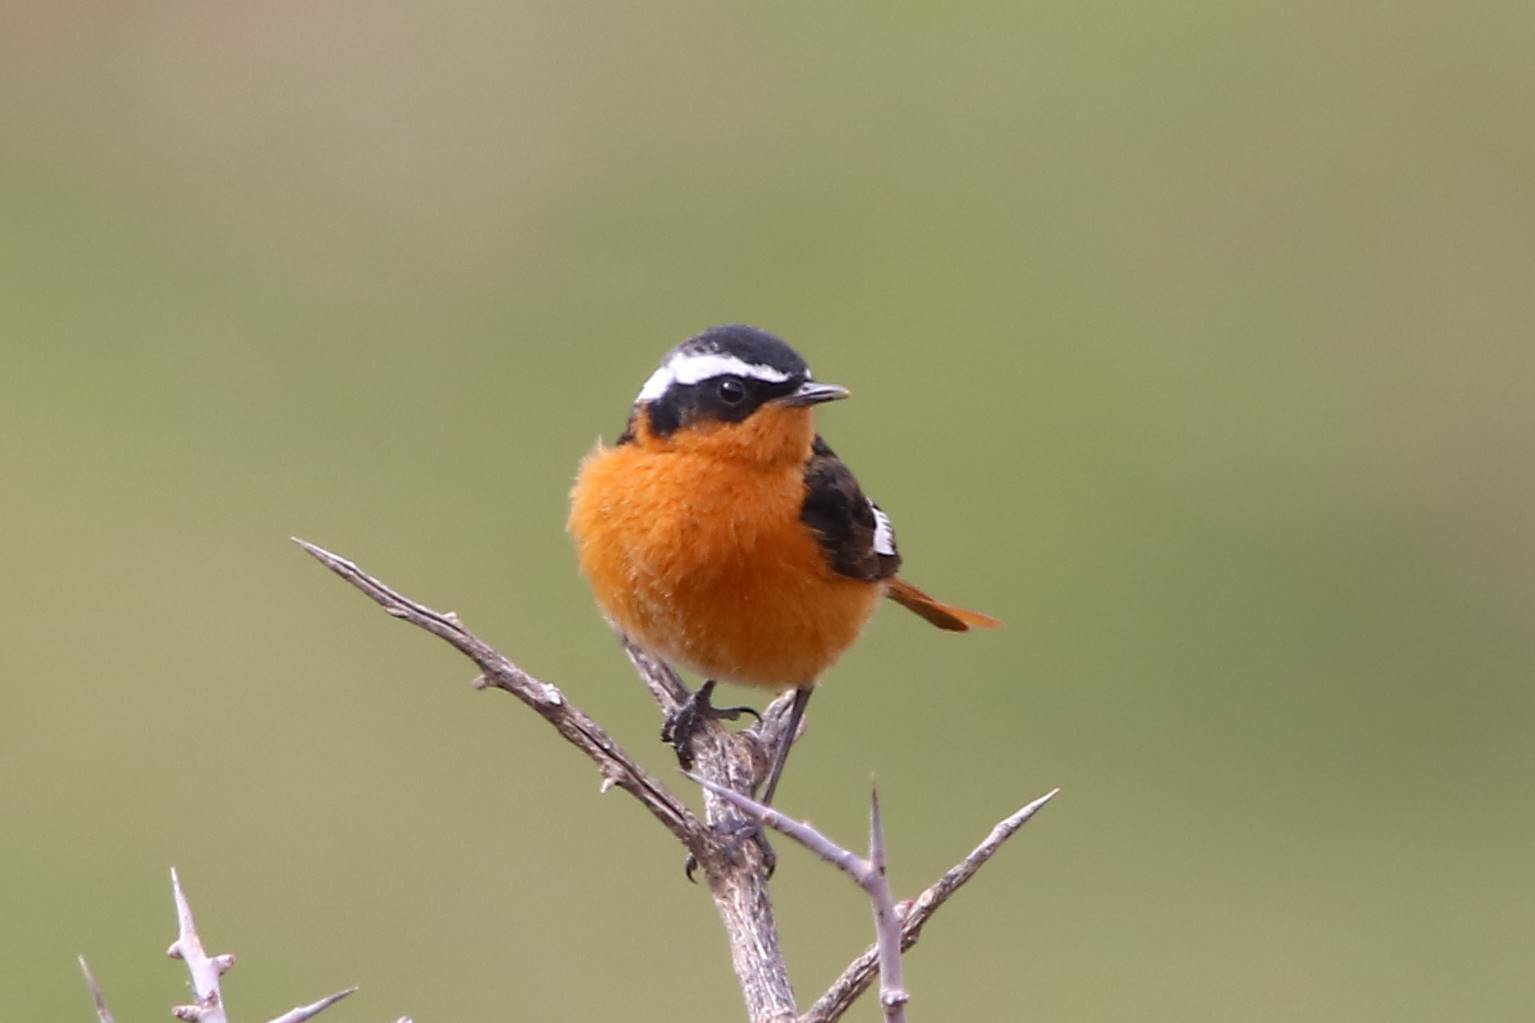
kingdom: Animalia
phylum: Chordata
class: Aves
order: Passeriformes
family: Muscicapidae
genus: Phoenicurus
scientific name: Phoenicurus moussieri
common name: Moussier's redstart
